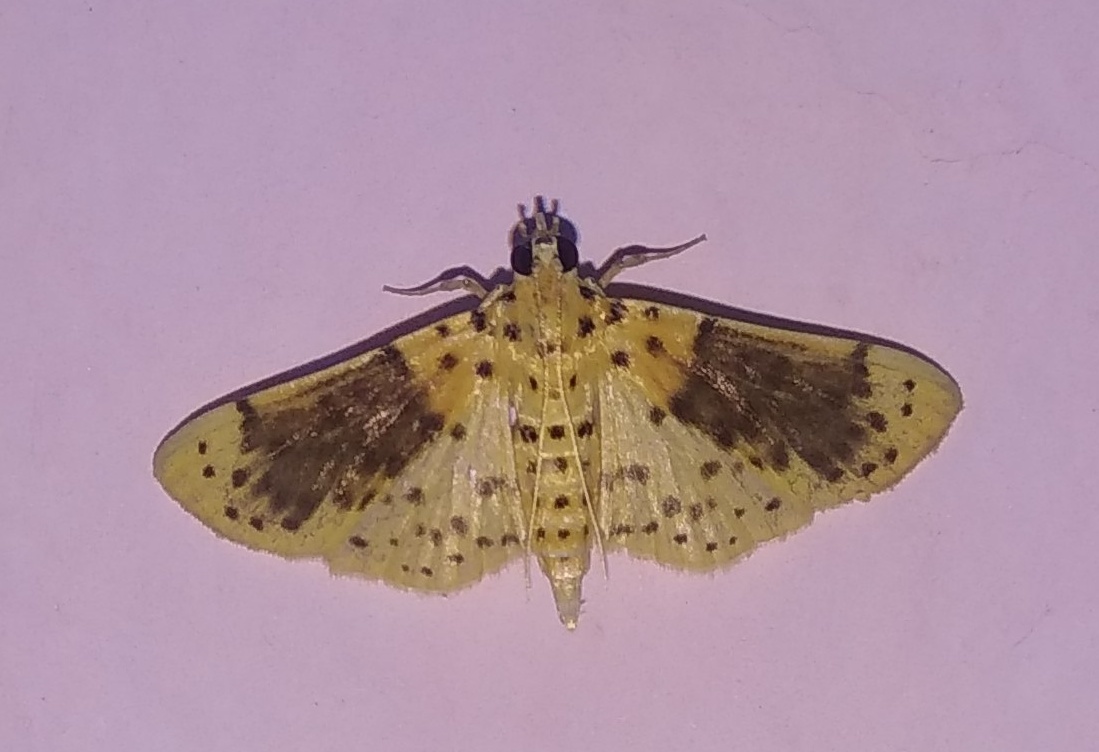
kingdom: Animalia
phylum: Arthropoda
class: Insecta
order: Lepidoptera
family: Crambidae
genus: Conogethes
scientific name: Conogethes semifascialis
